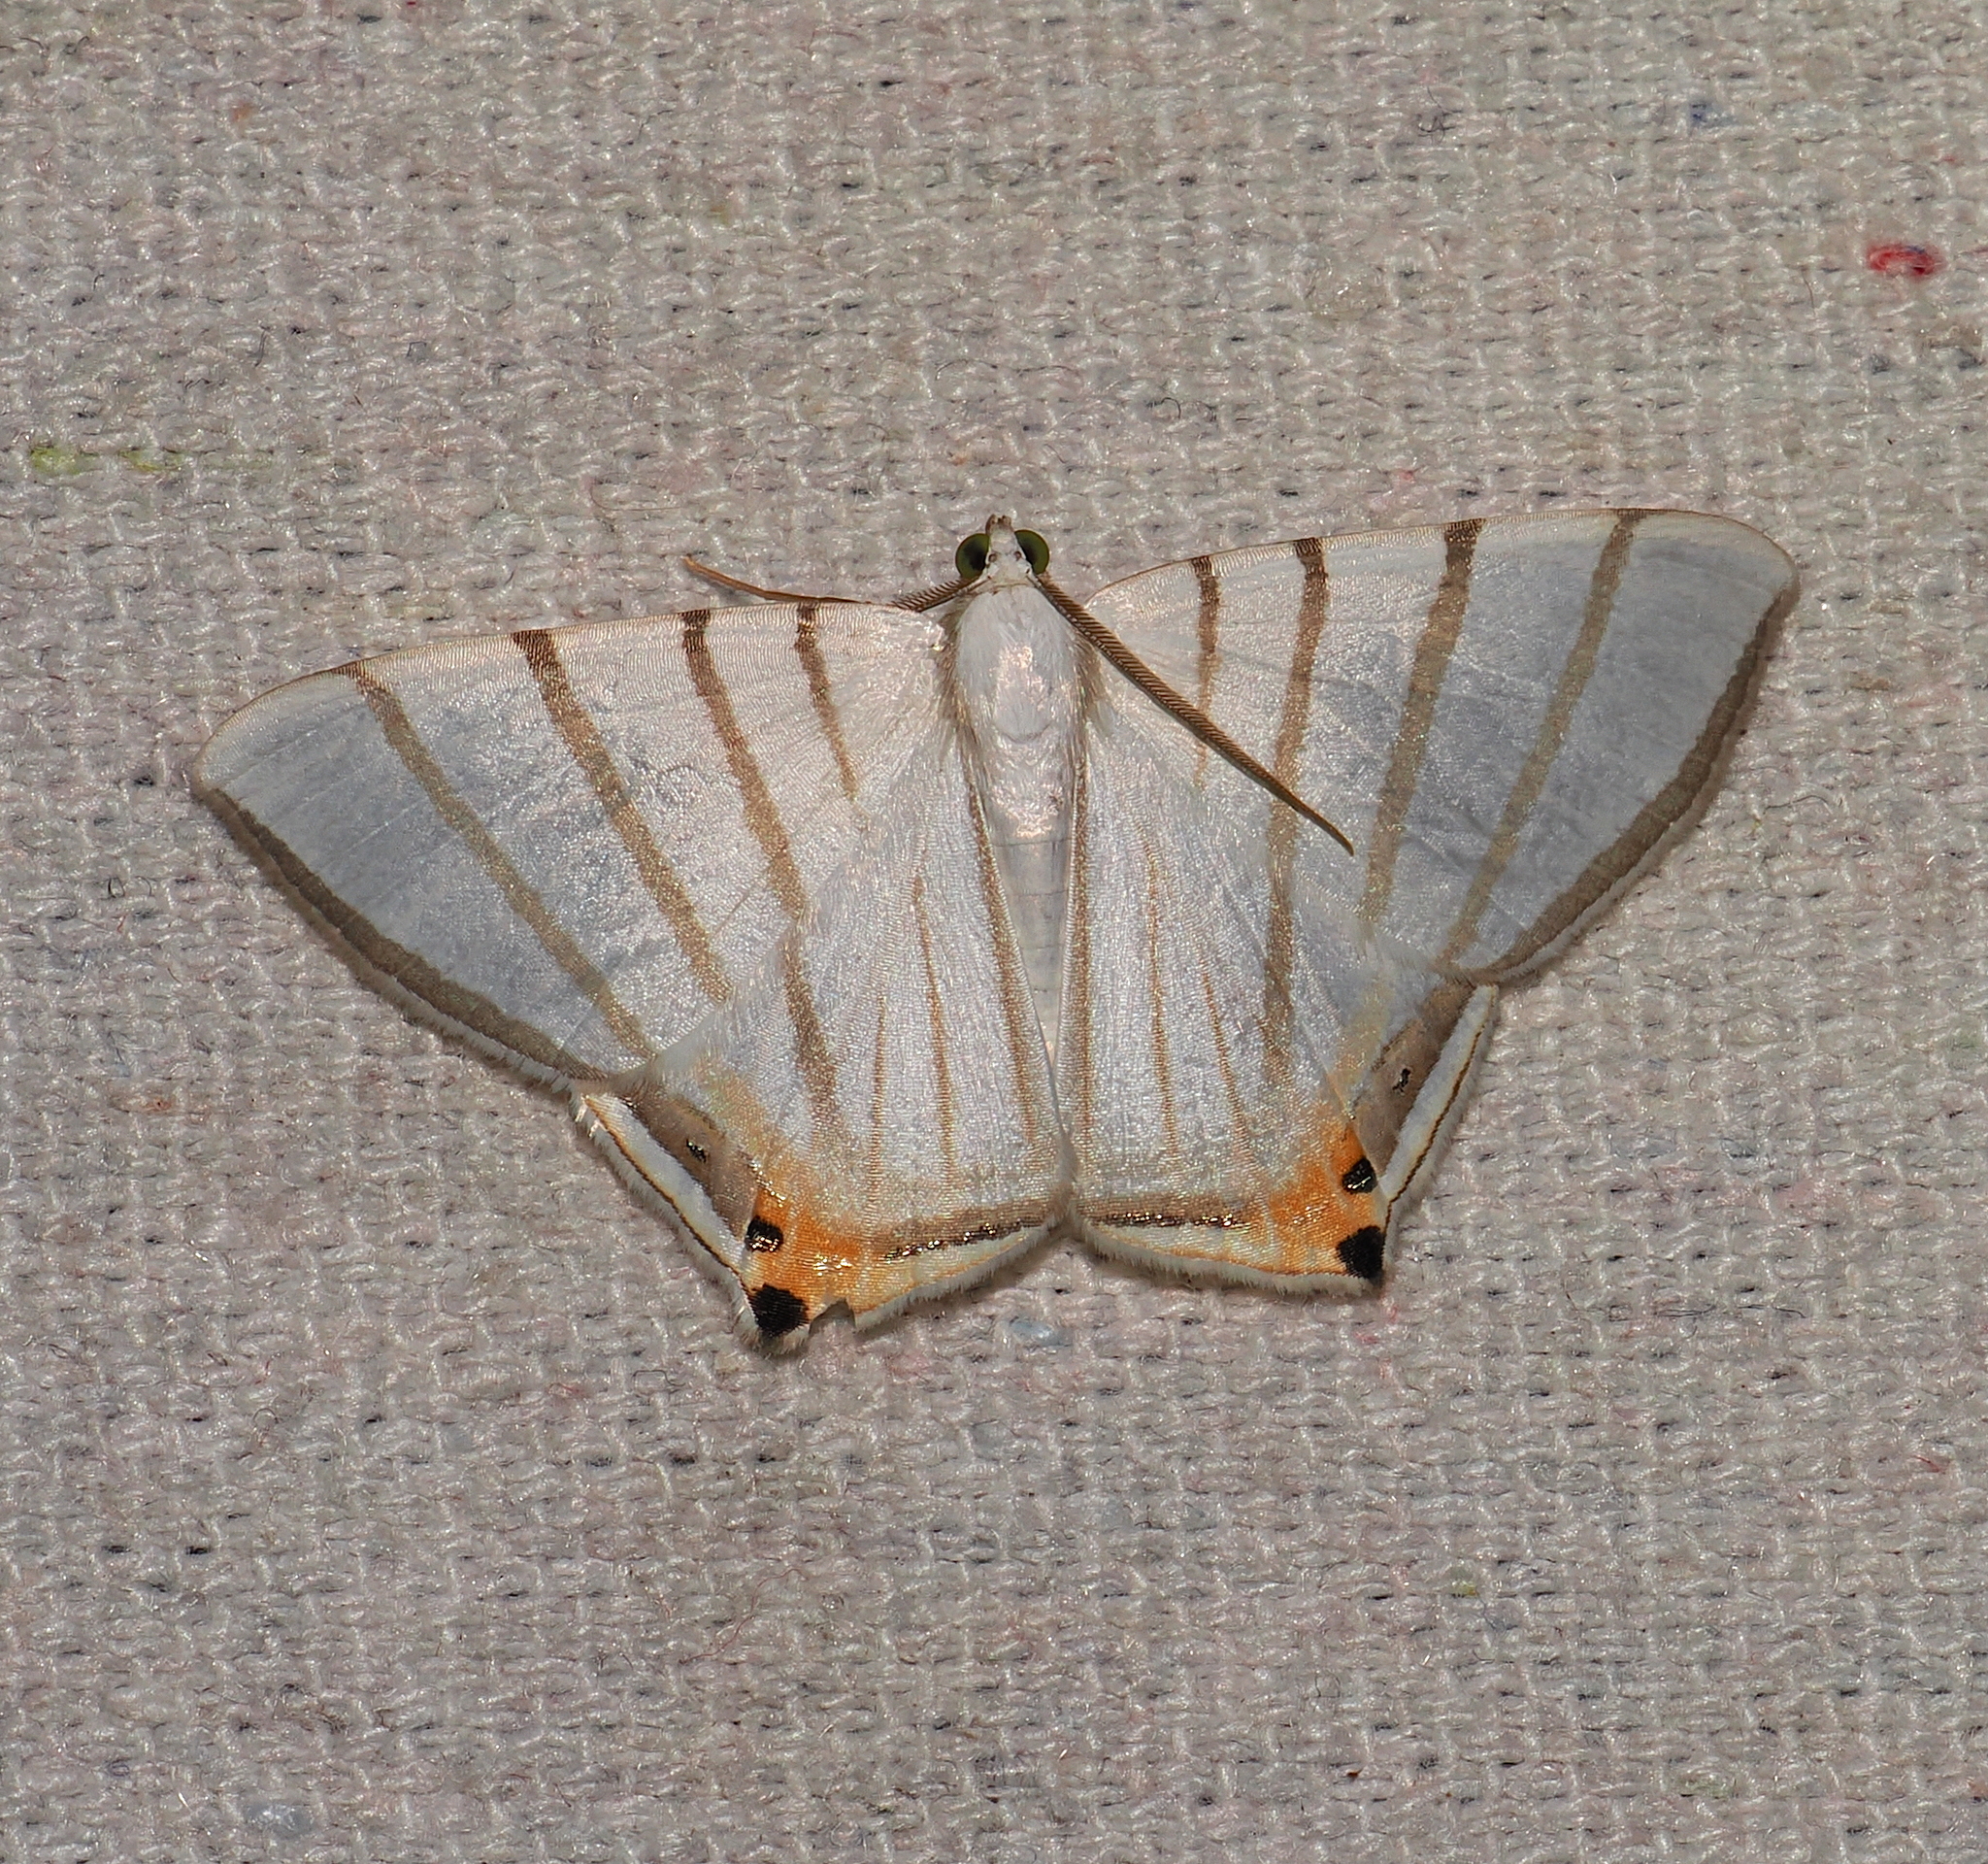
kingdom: Animalia
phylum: Arthropoda
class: Insecta
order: Lepidoptera
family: Geometridae
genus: Opisthoxia
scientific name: Opisthoxia metargyria
